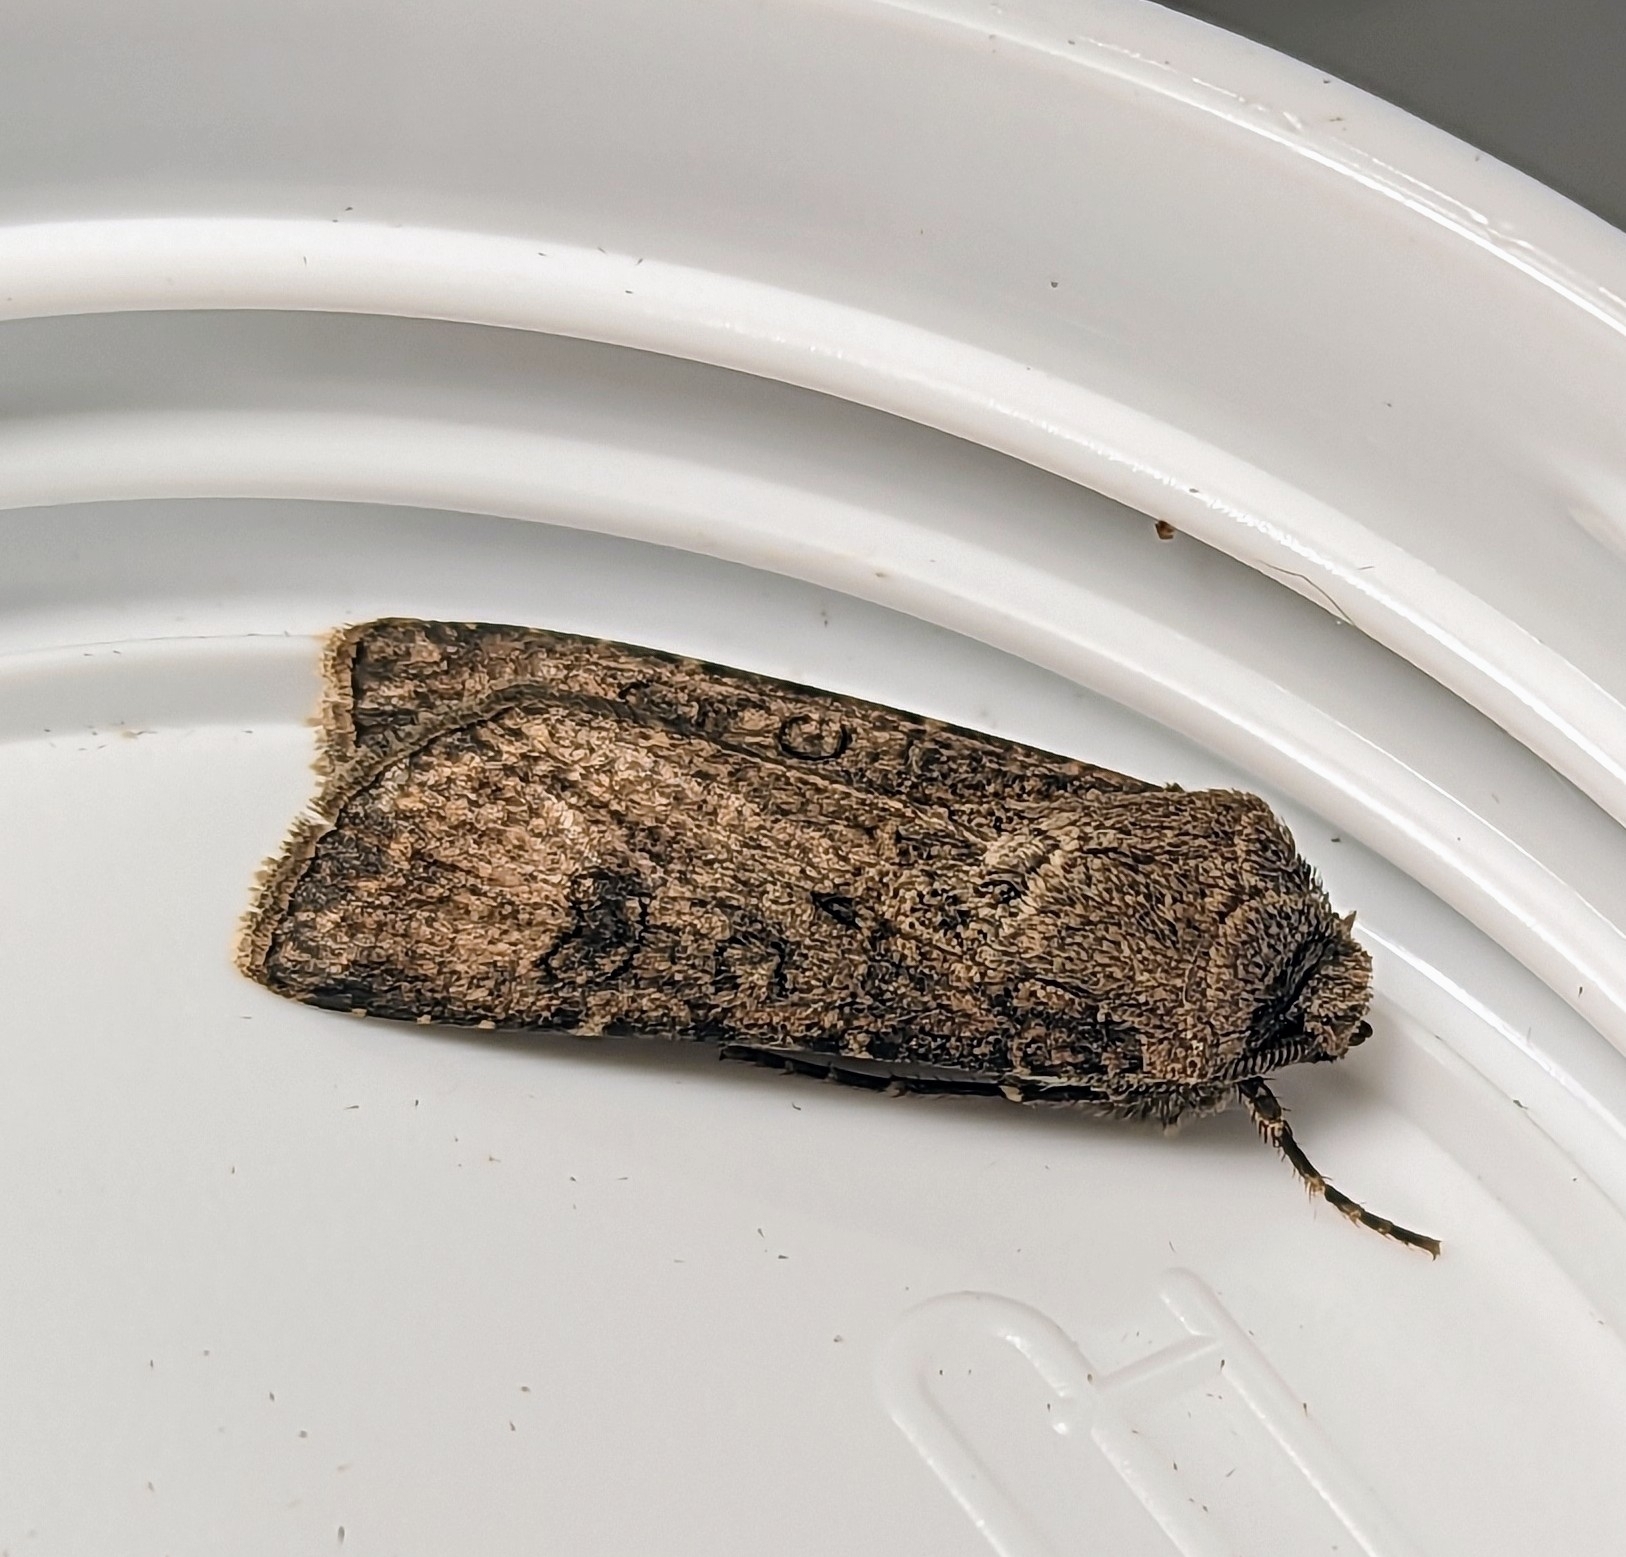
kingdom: Animalia
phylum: Arthropoda
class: Insecta
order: Lepidoptera
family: Noctuidae
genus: Agrotis
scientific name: Agrotis segetum
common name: Turnip moth
